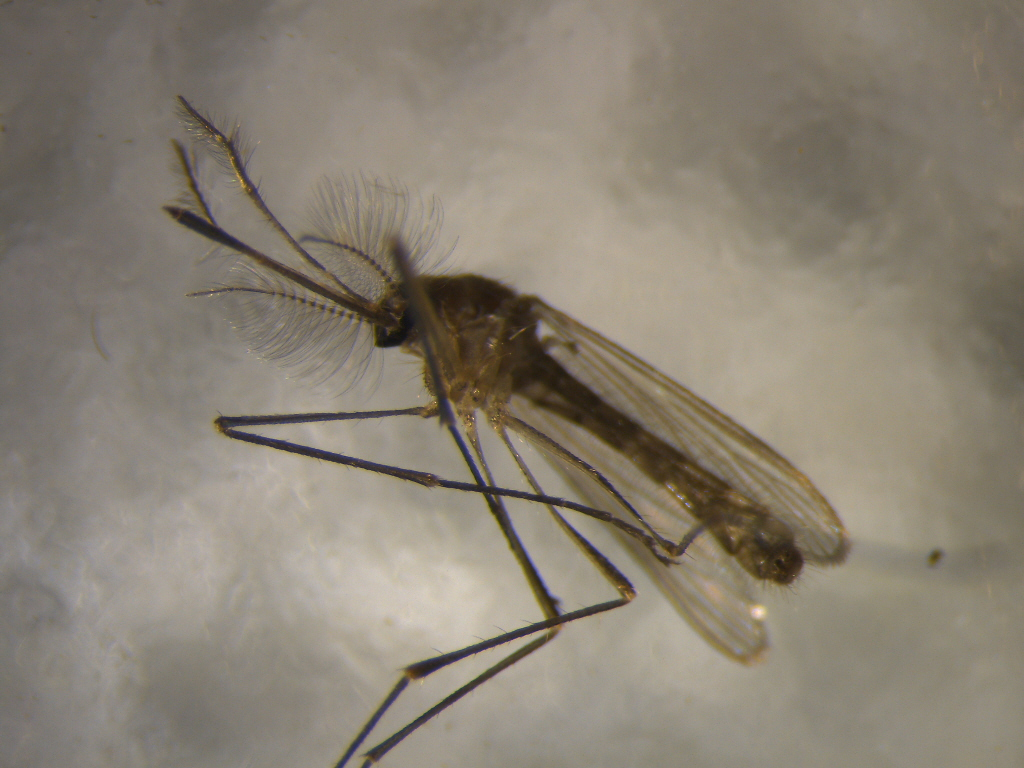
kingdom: Animalia
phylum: Arthropoda
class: Insecta
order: Diptera
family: Culicidae
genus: Culex
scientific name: Culex quinquefasciatus
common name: Southern house mosquito
